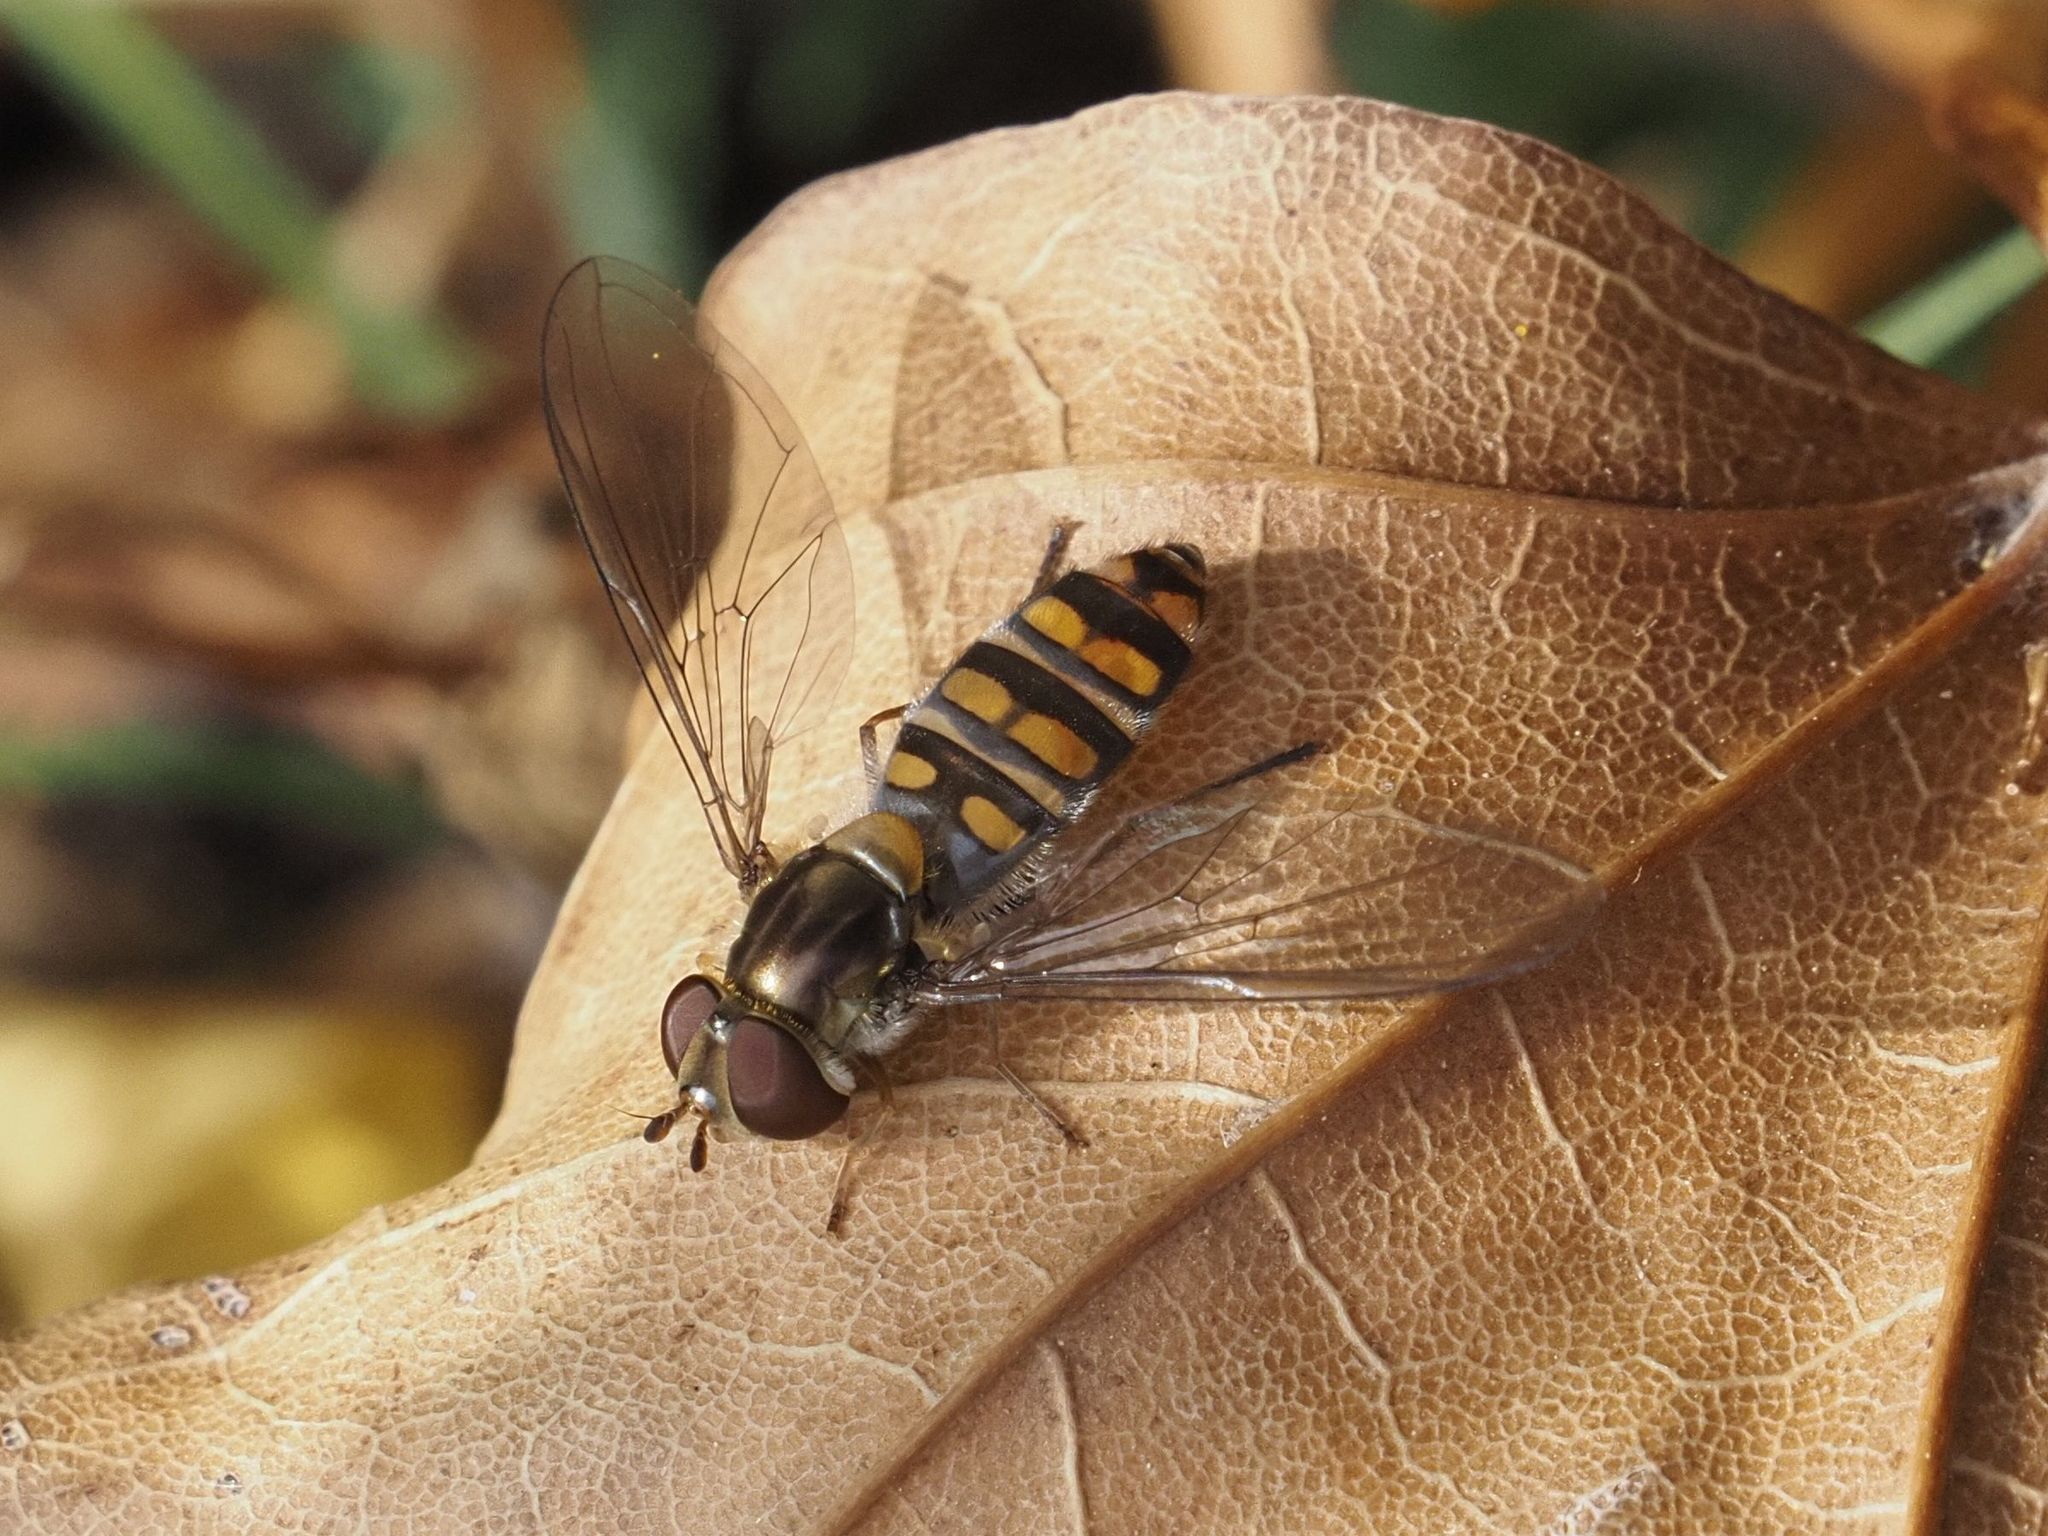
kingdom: Animalia
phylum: Arthropoda
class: Insecta
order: Diptera
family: Syrphidae
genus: Episyrphus
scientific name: Episyrphus balteatus
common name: Marmalade hoverfly
